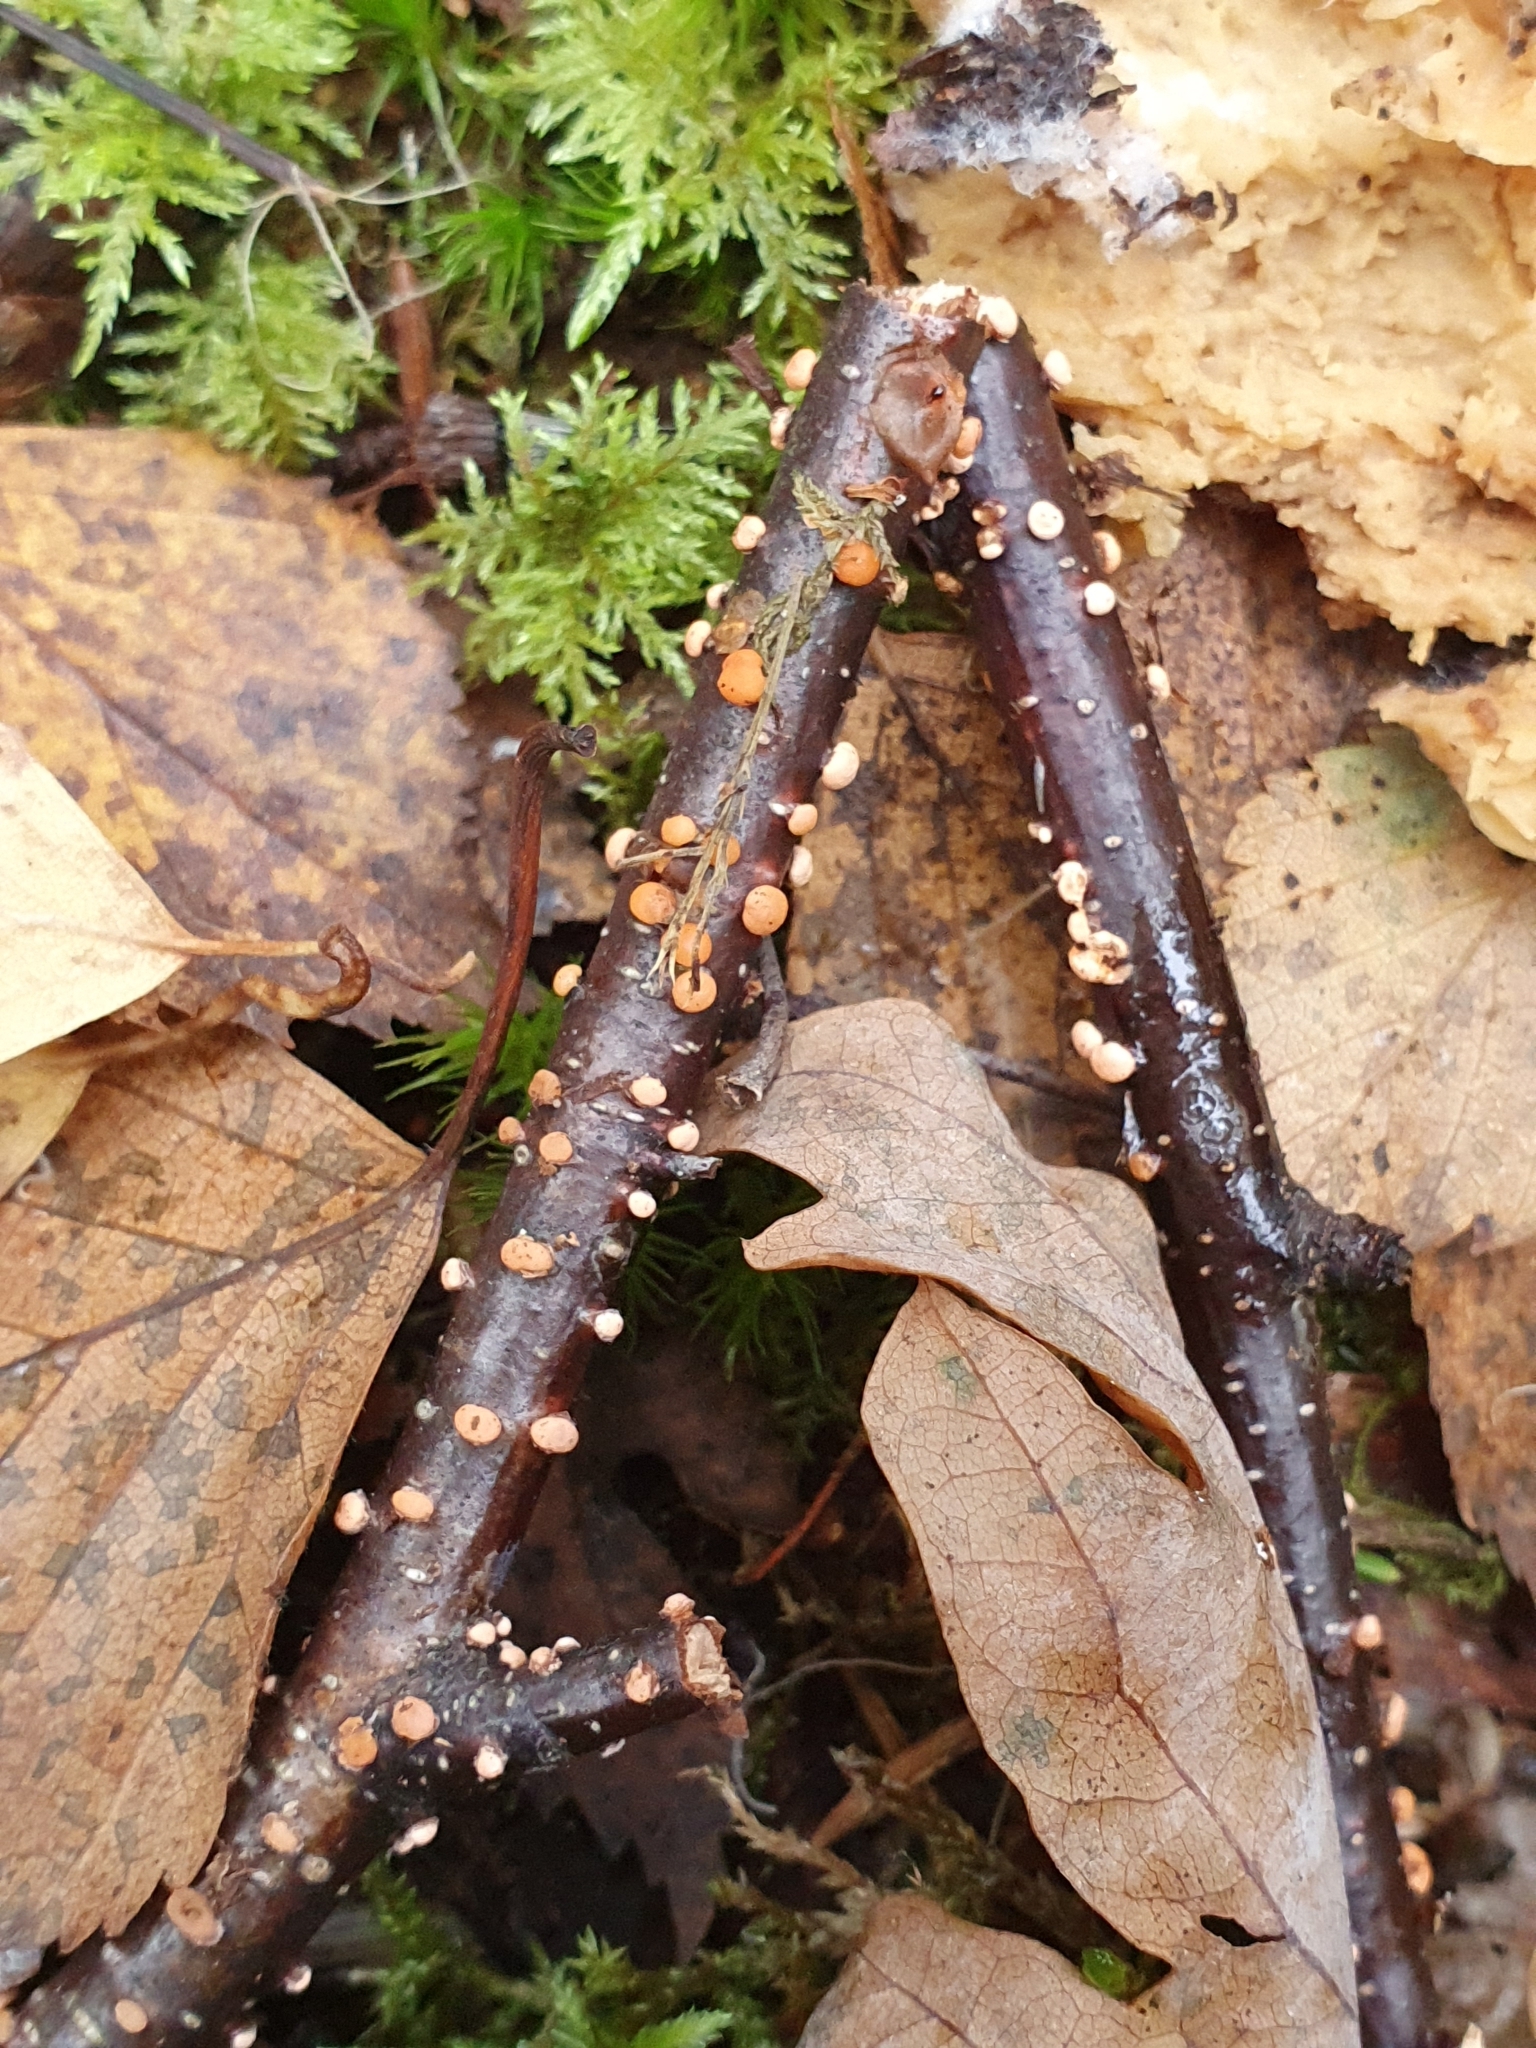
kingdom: Fungi
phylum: Ascomycota
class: Sordariomycetes
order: Hypocreales
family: Nectriaceae
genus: Nectria
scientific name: Nectria cinnabarina
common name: Coral spot
